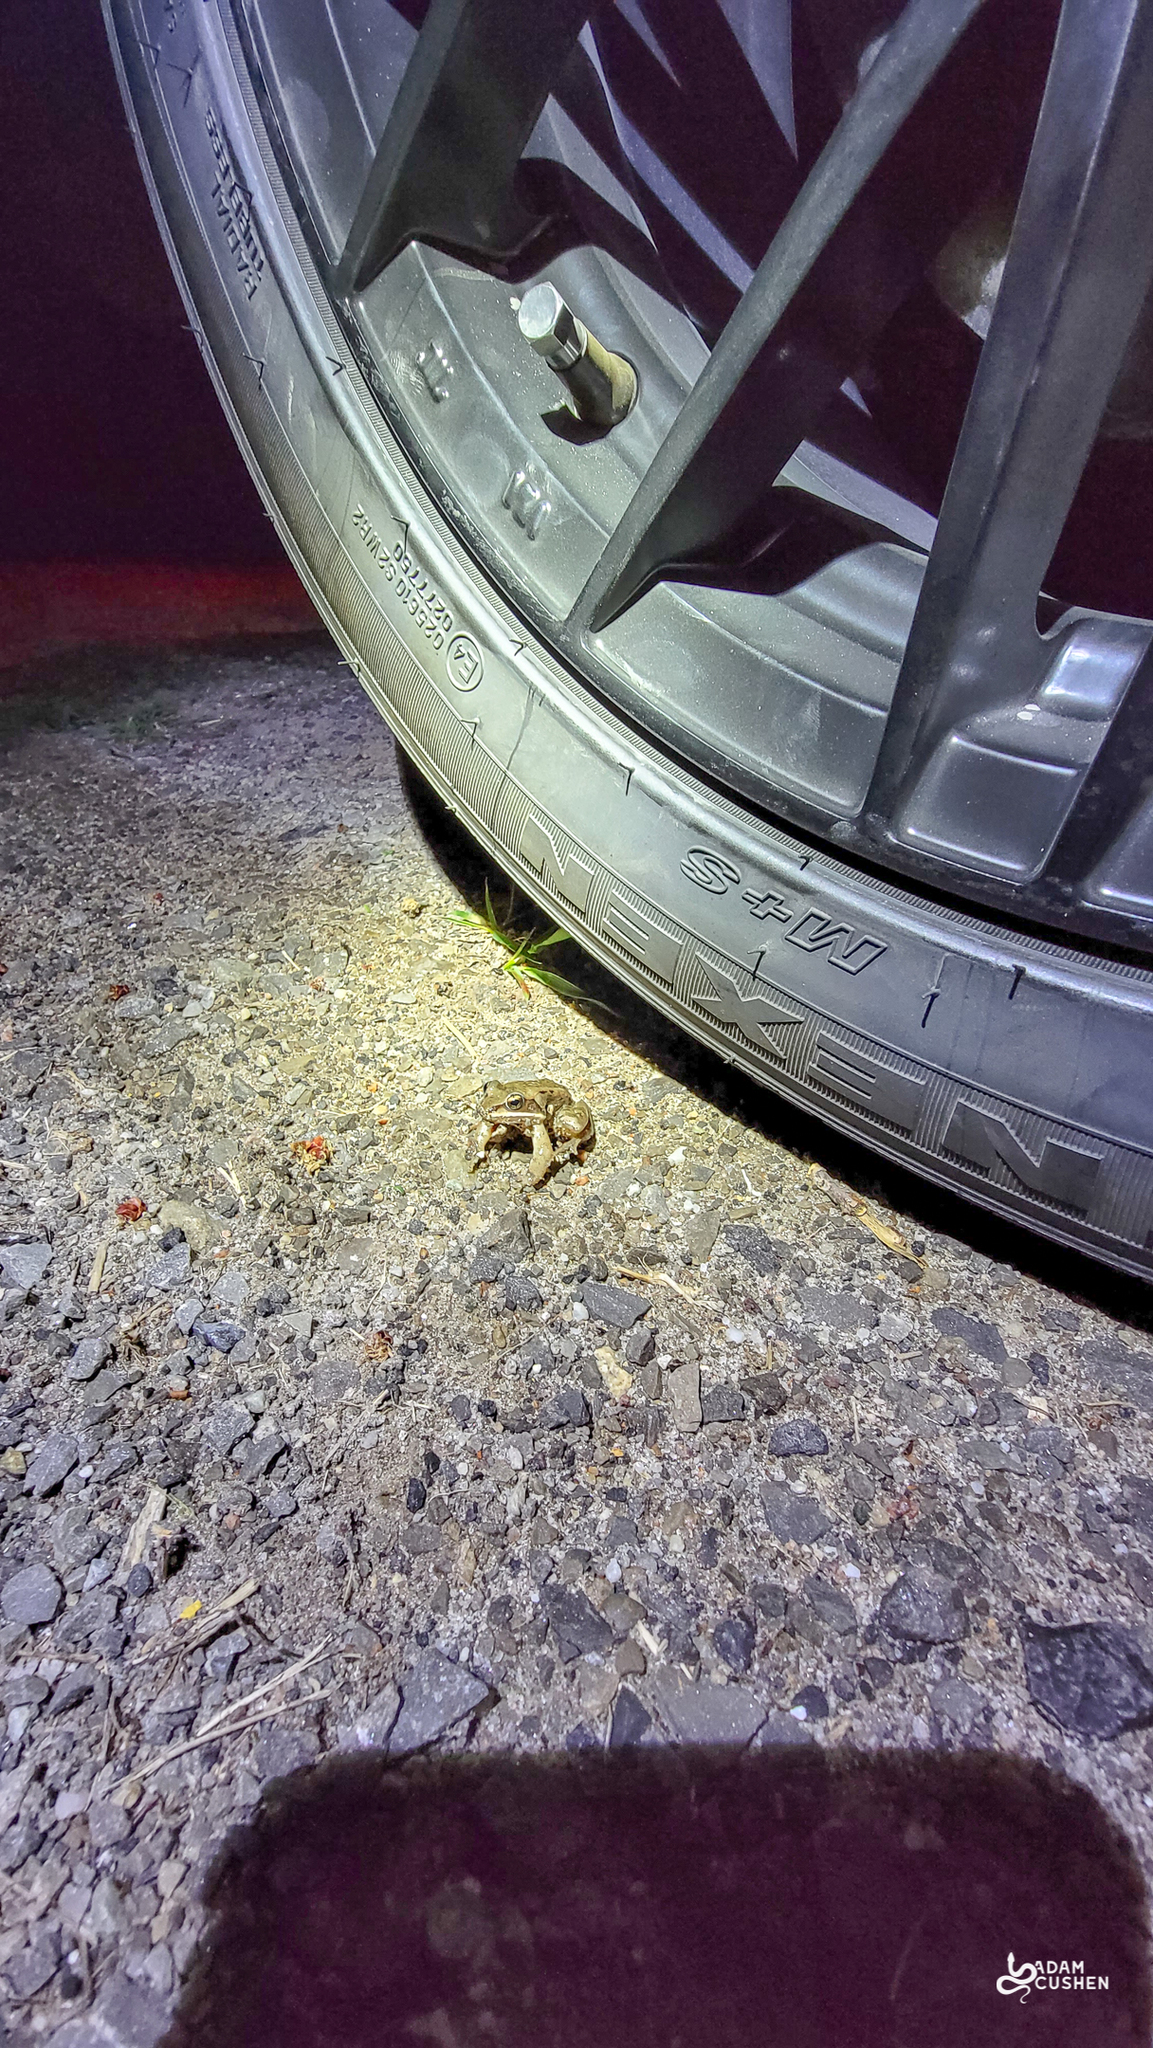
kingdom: Animalia
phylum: Chordata
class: Amphibia
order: Anura
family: Ranidae
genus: Lithobates
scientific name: Lithobates sylvaticus
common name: Wood frog
